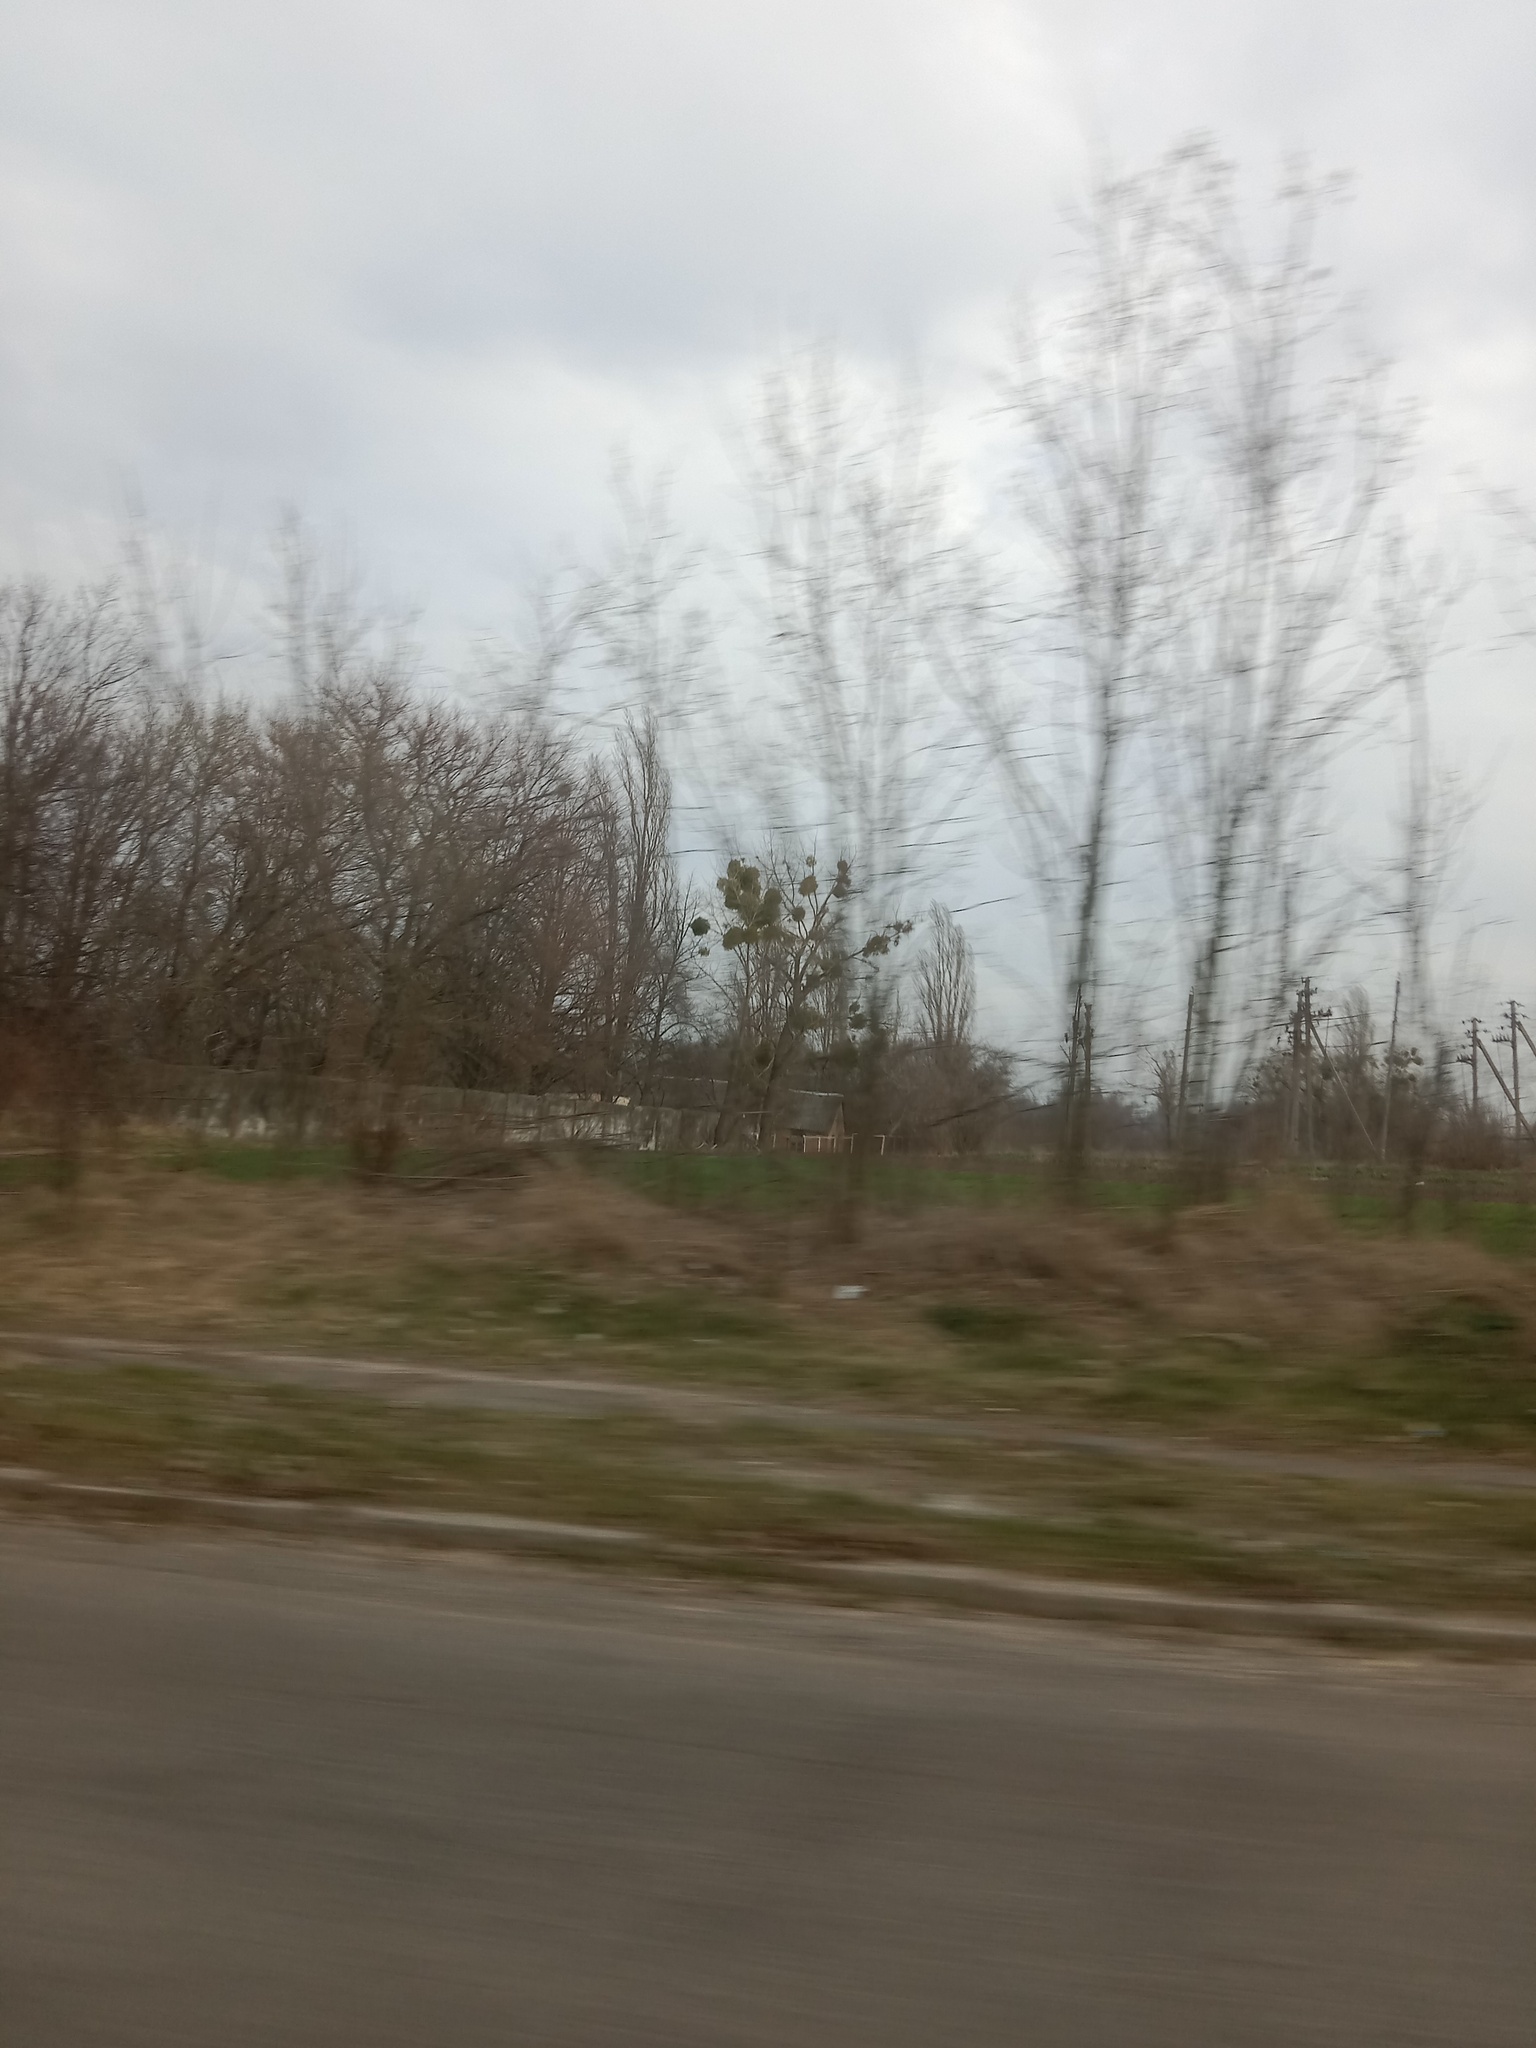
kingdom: Plantae
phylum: Tracheophyta
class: Magnoliopsida
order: Santalales
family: Viscaceae
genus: Viscum
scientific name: Viscum album
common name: Mistletoe
